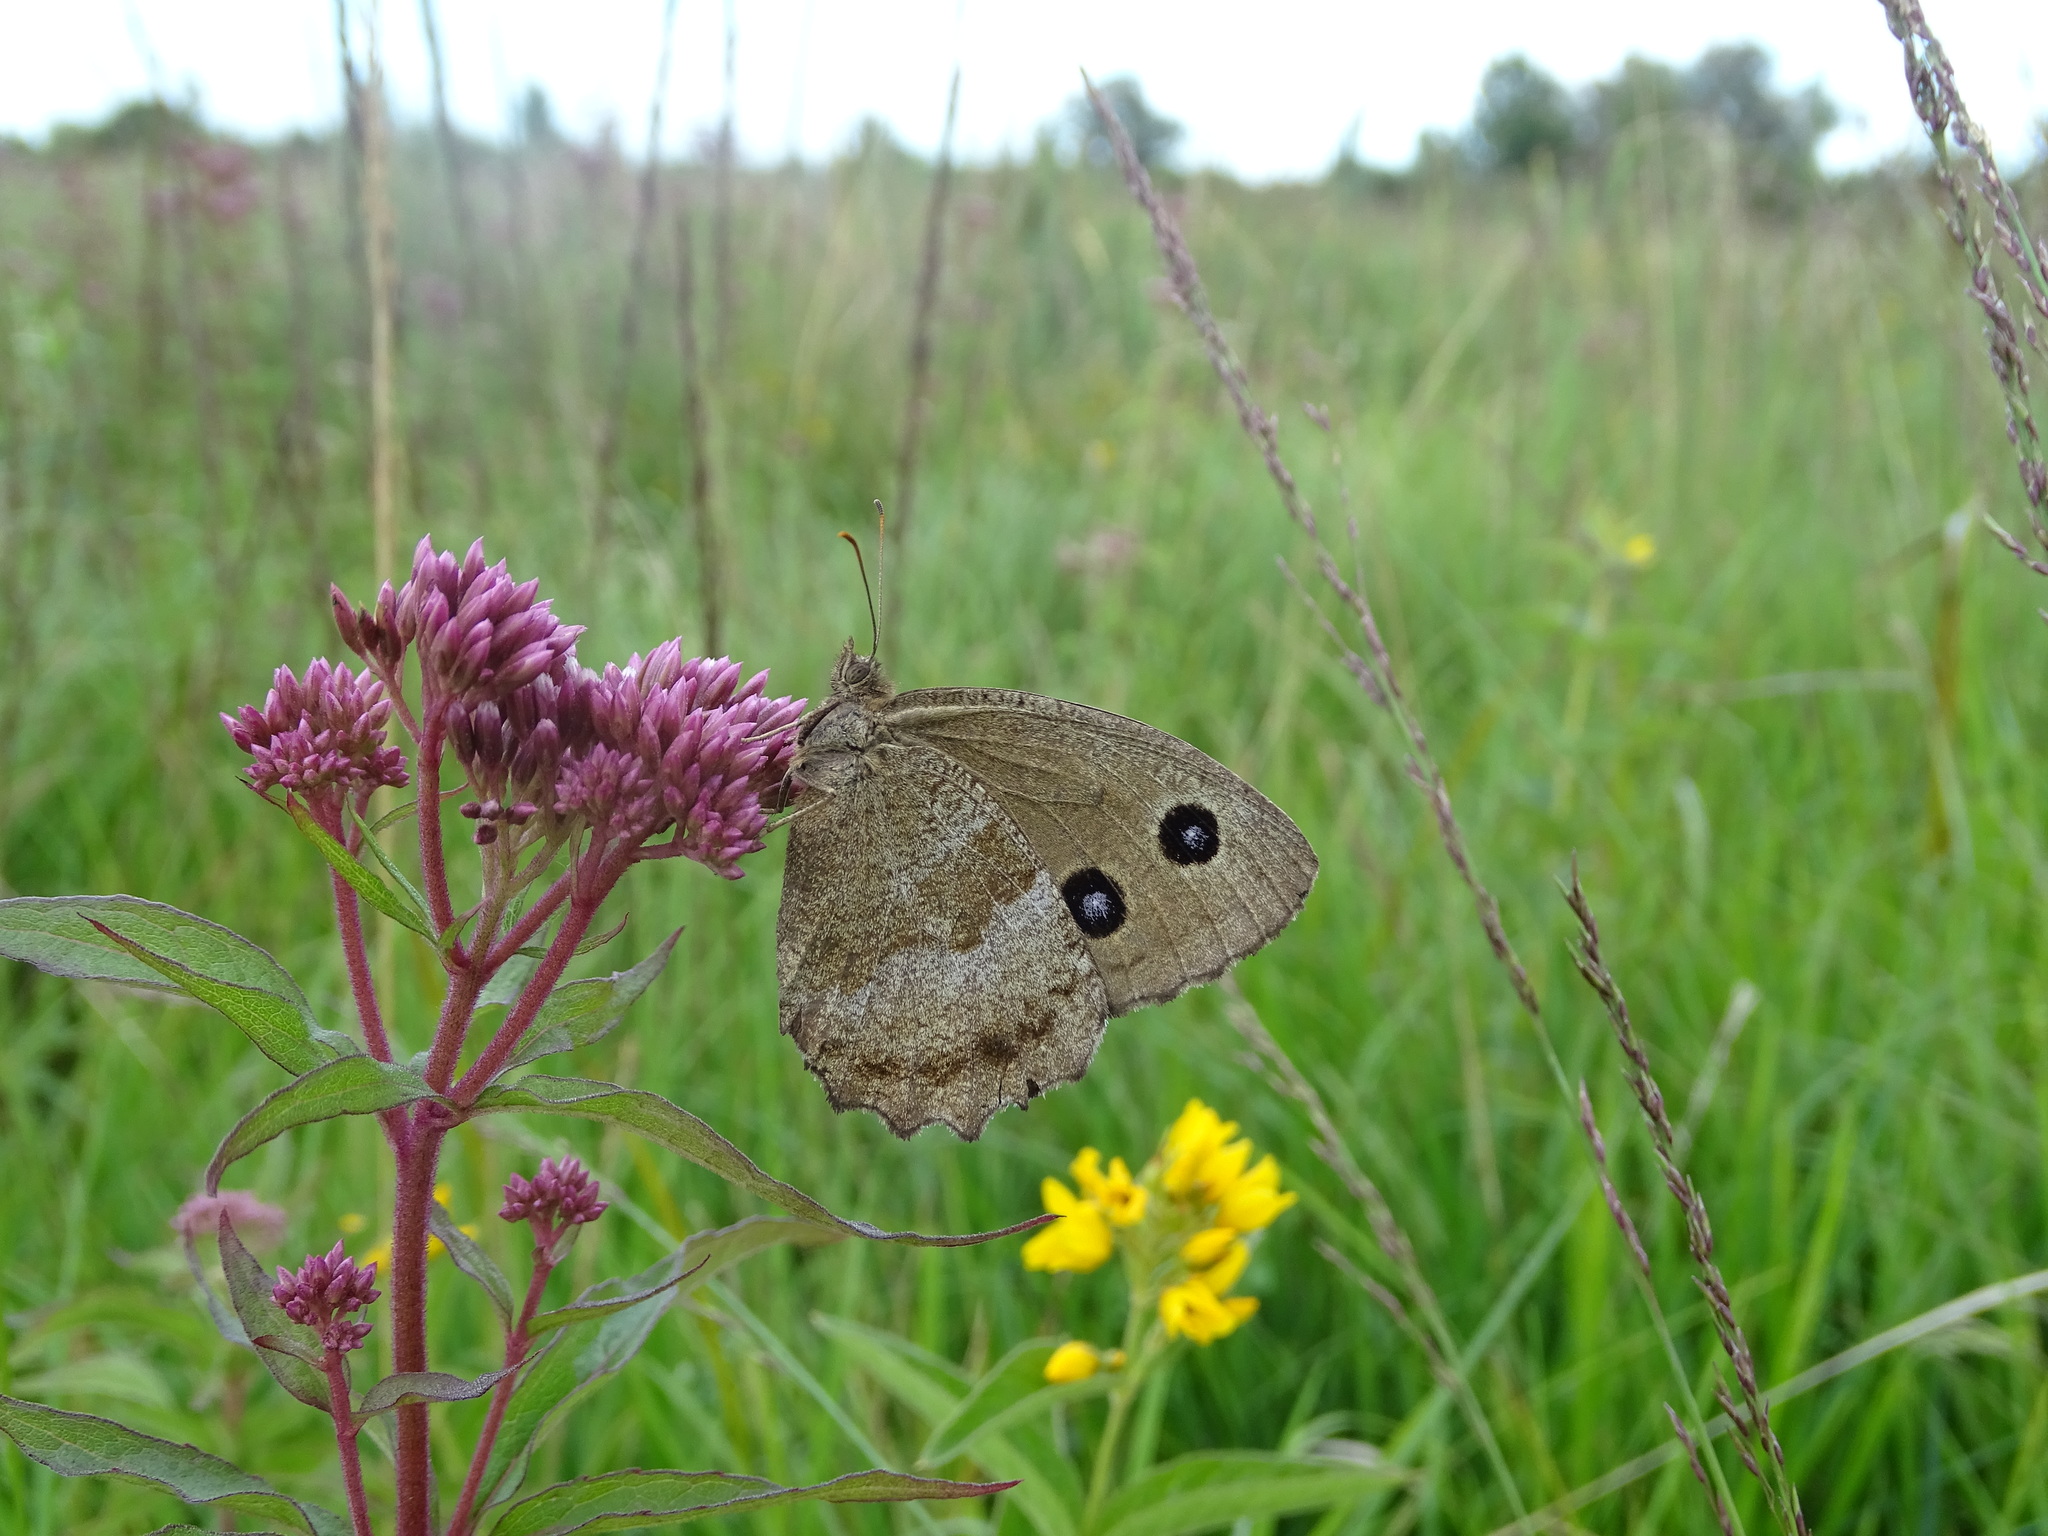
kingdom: Animalia
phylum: Arthropoda
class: Insecta
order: Lepidoptera
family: Nymphalidae
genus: Minois
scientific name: Minois dryas
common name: Dryad
